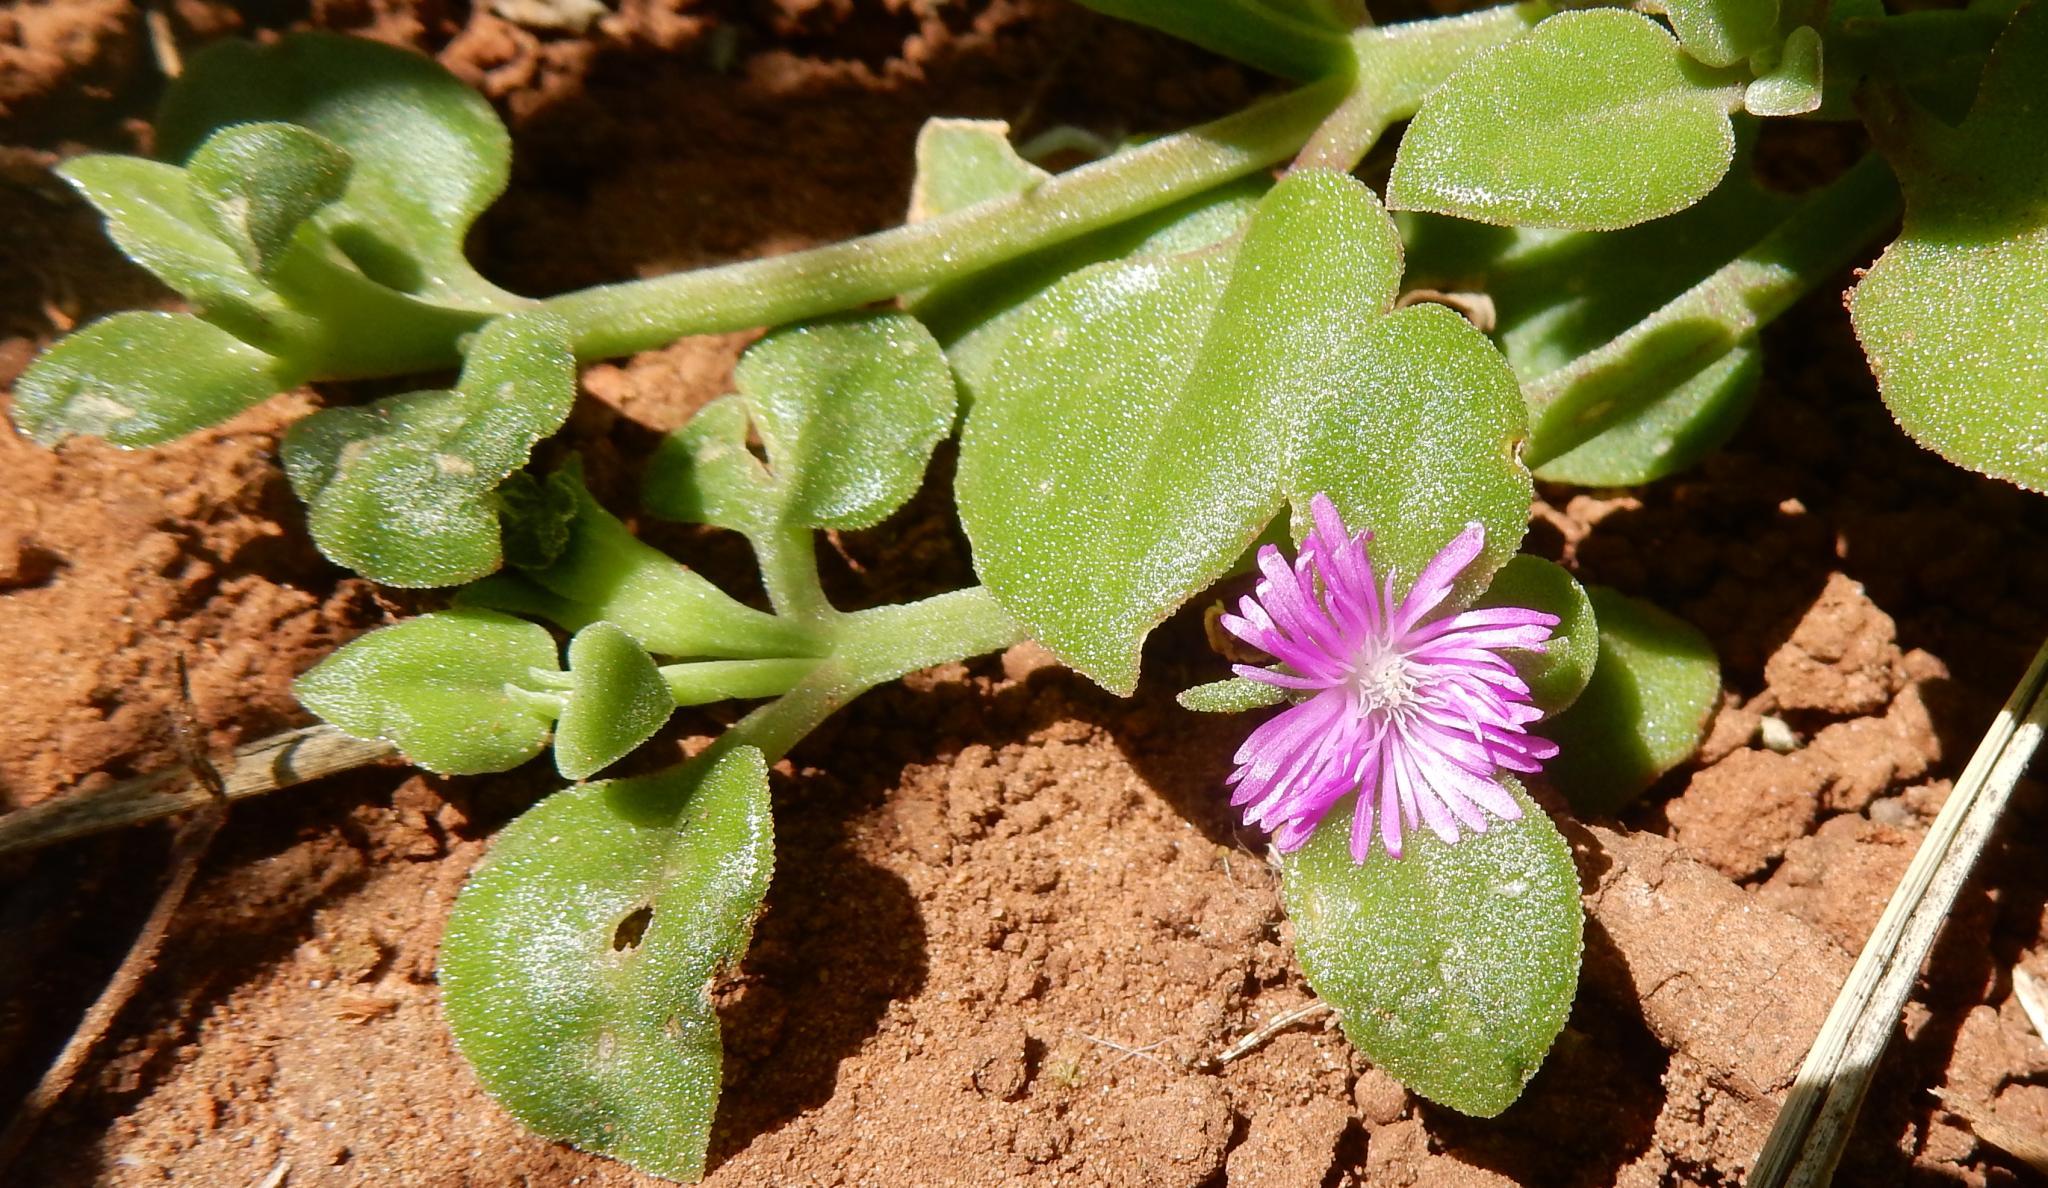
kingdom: Plantae
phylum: Tracheophyta
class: Magnoliopsida
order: Caryophyllales
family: Aizoaceae
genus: Mesembryanthemum
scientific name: Mesembryanthemum cordifolium
